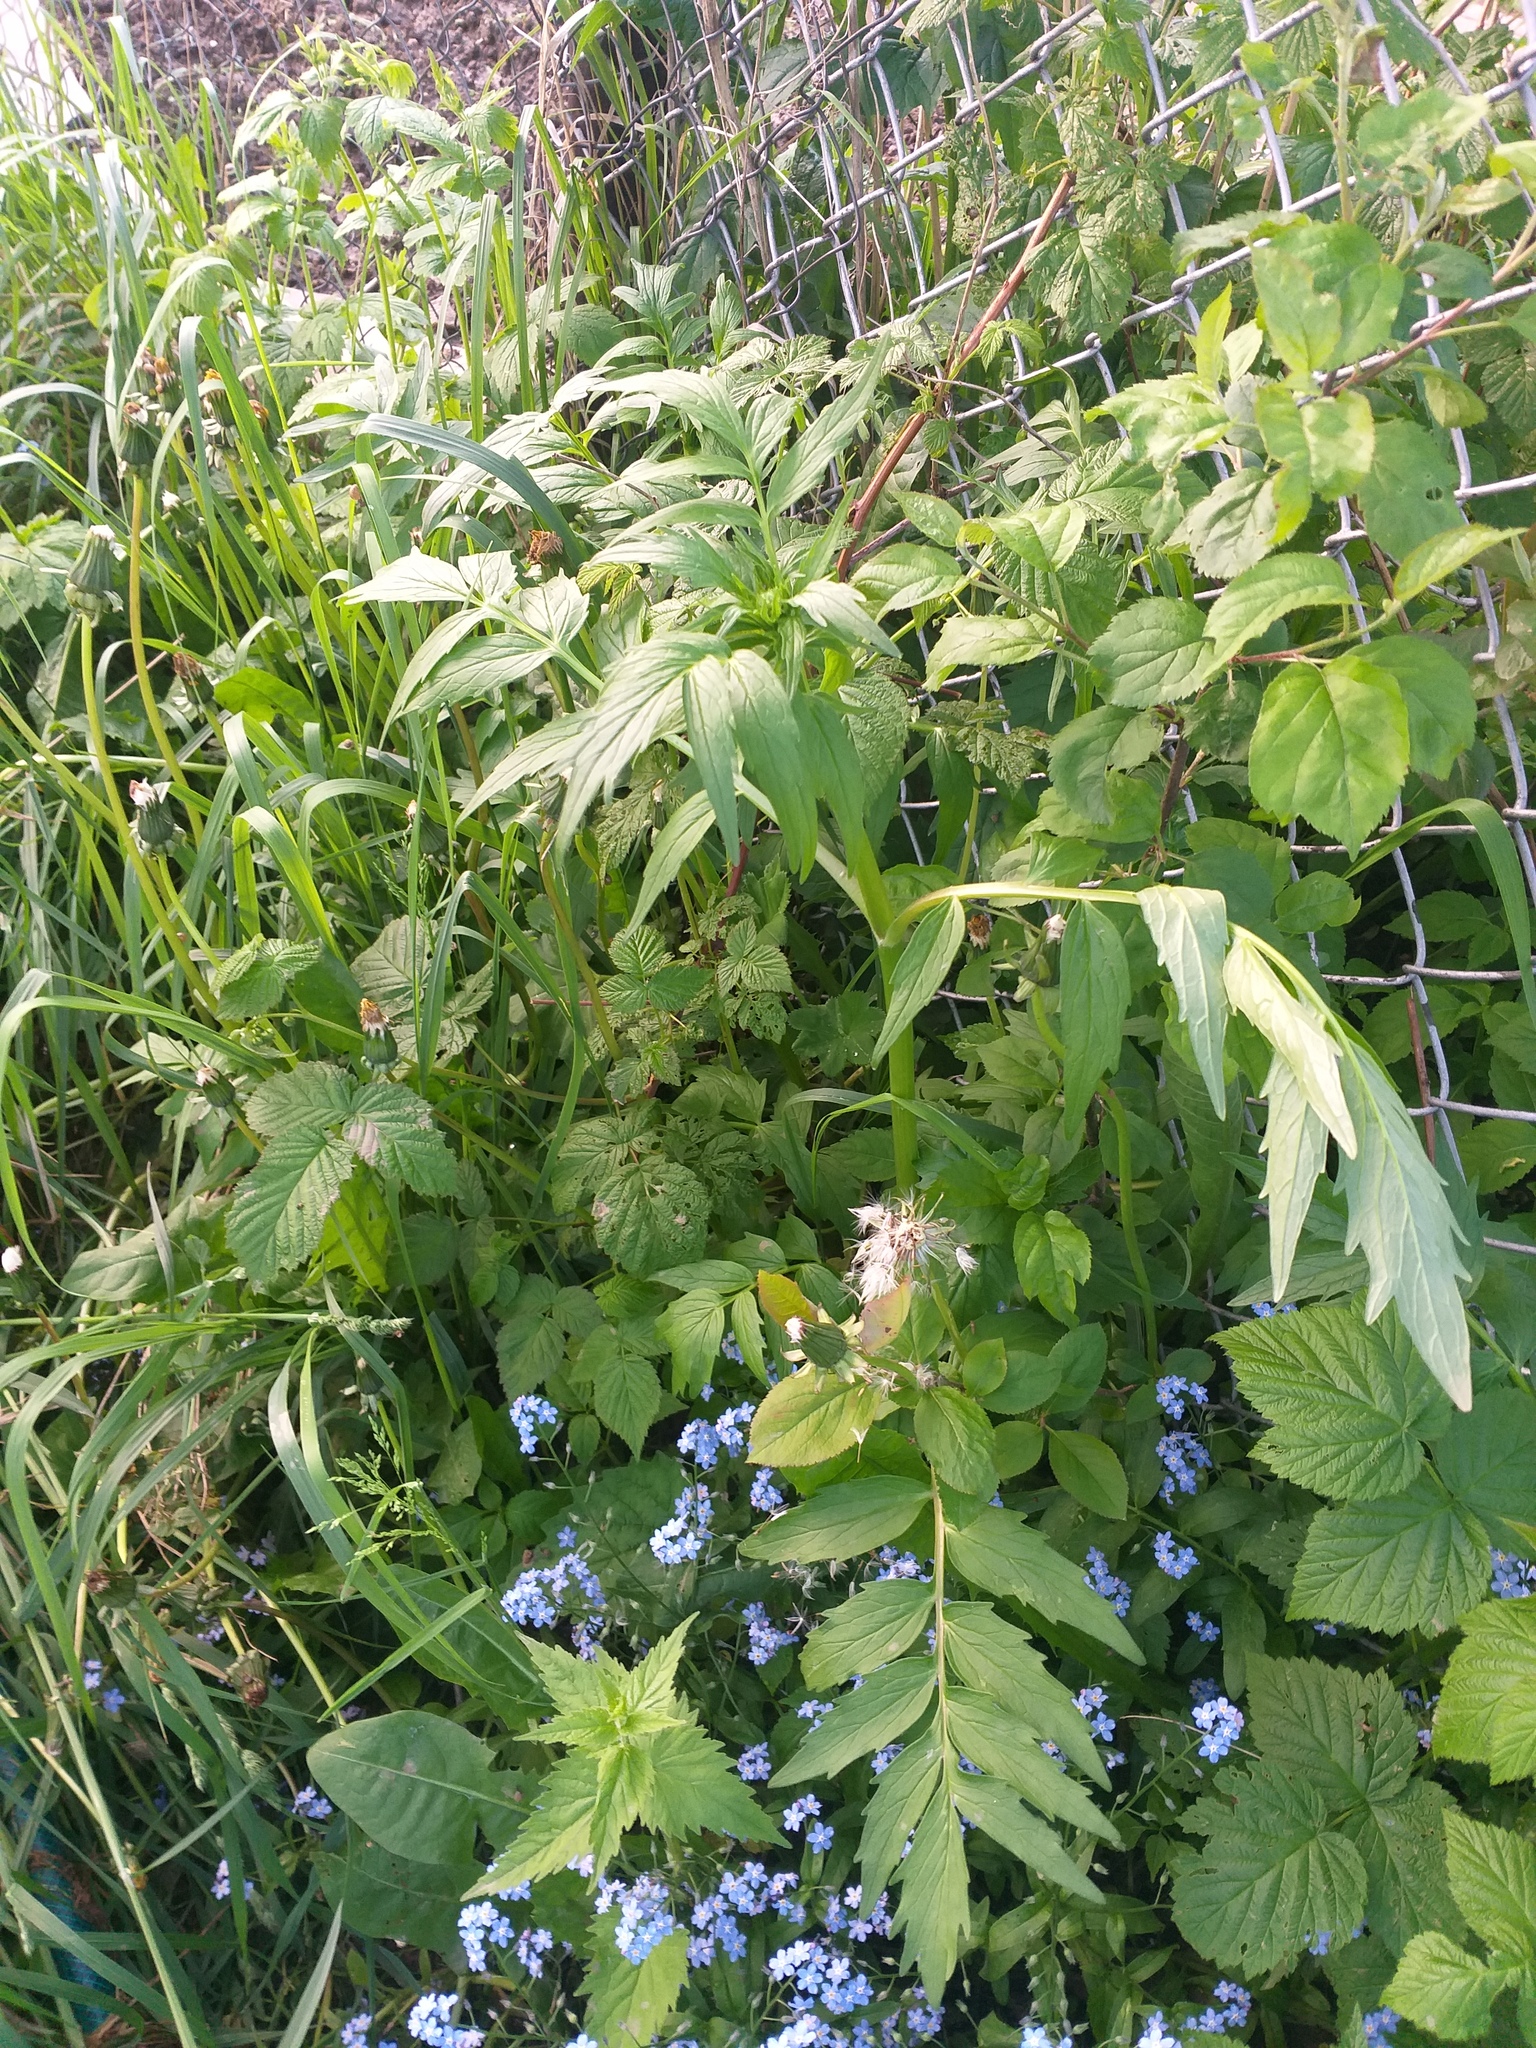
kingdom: Plantae
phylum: Tracheophyta
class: Magnoliopsida
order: Dipsacales
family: Caprifoliaceae
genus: Valeriana
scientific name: Valeriana officinalis
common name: Common valerian
